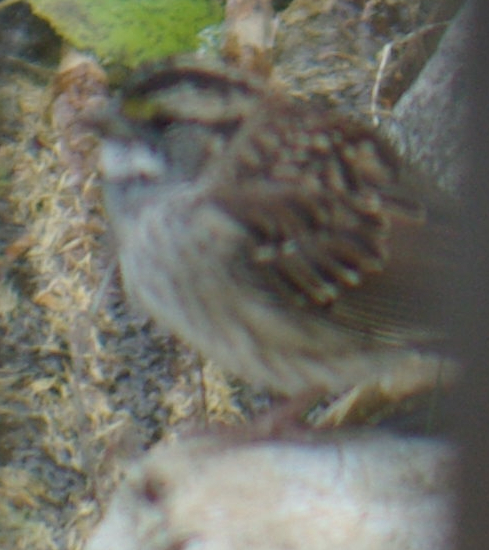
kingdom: Animalia
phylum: Chordata
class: Aves
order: Passeriformes
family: Passerellidae
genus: Zonotrichia
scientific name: Zonotrichia albicollis
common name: White-throated sparrow
